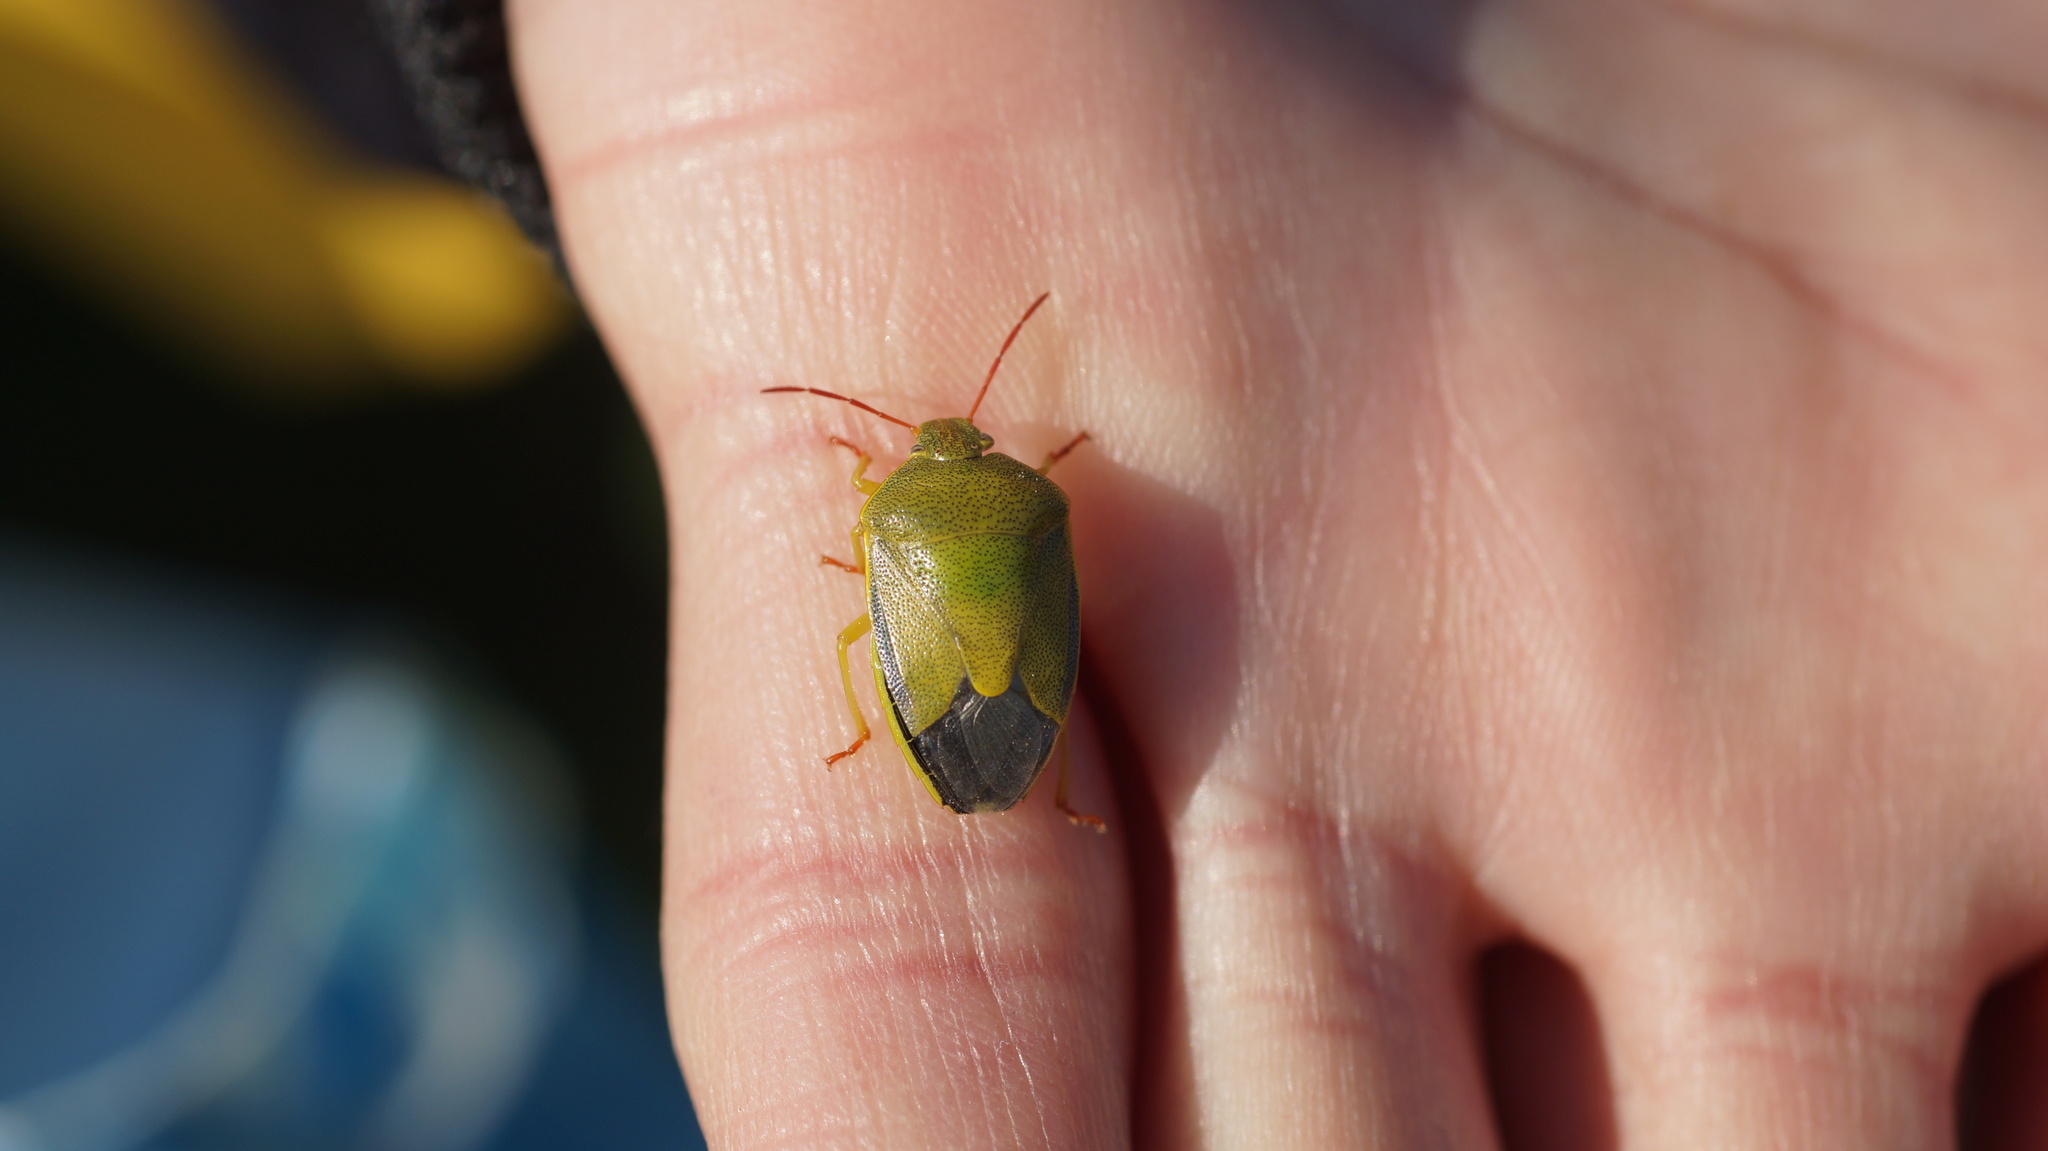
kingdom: Animalia
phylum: Arthropoda
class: Insecta
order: Hemiptera
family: Pentatomidae
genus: Piezodorus
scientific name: Piezodorus lituratus
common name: Stink bug
